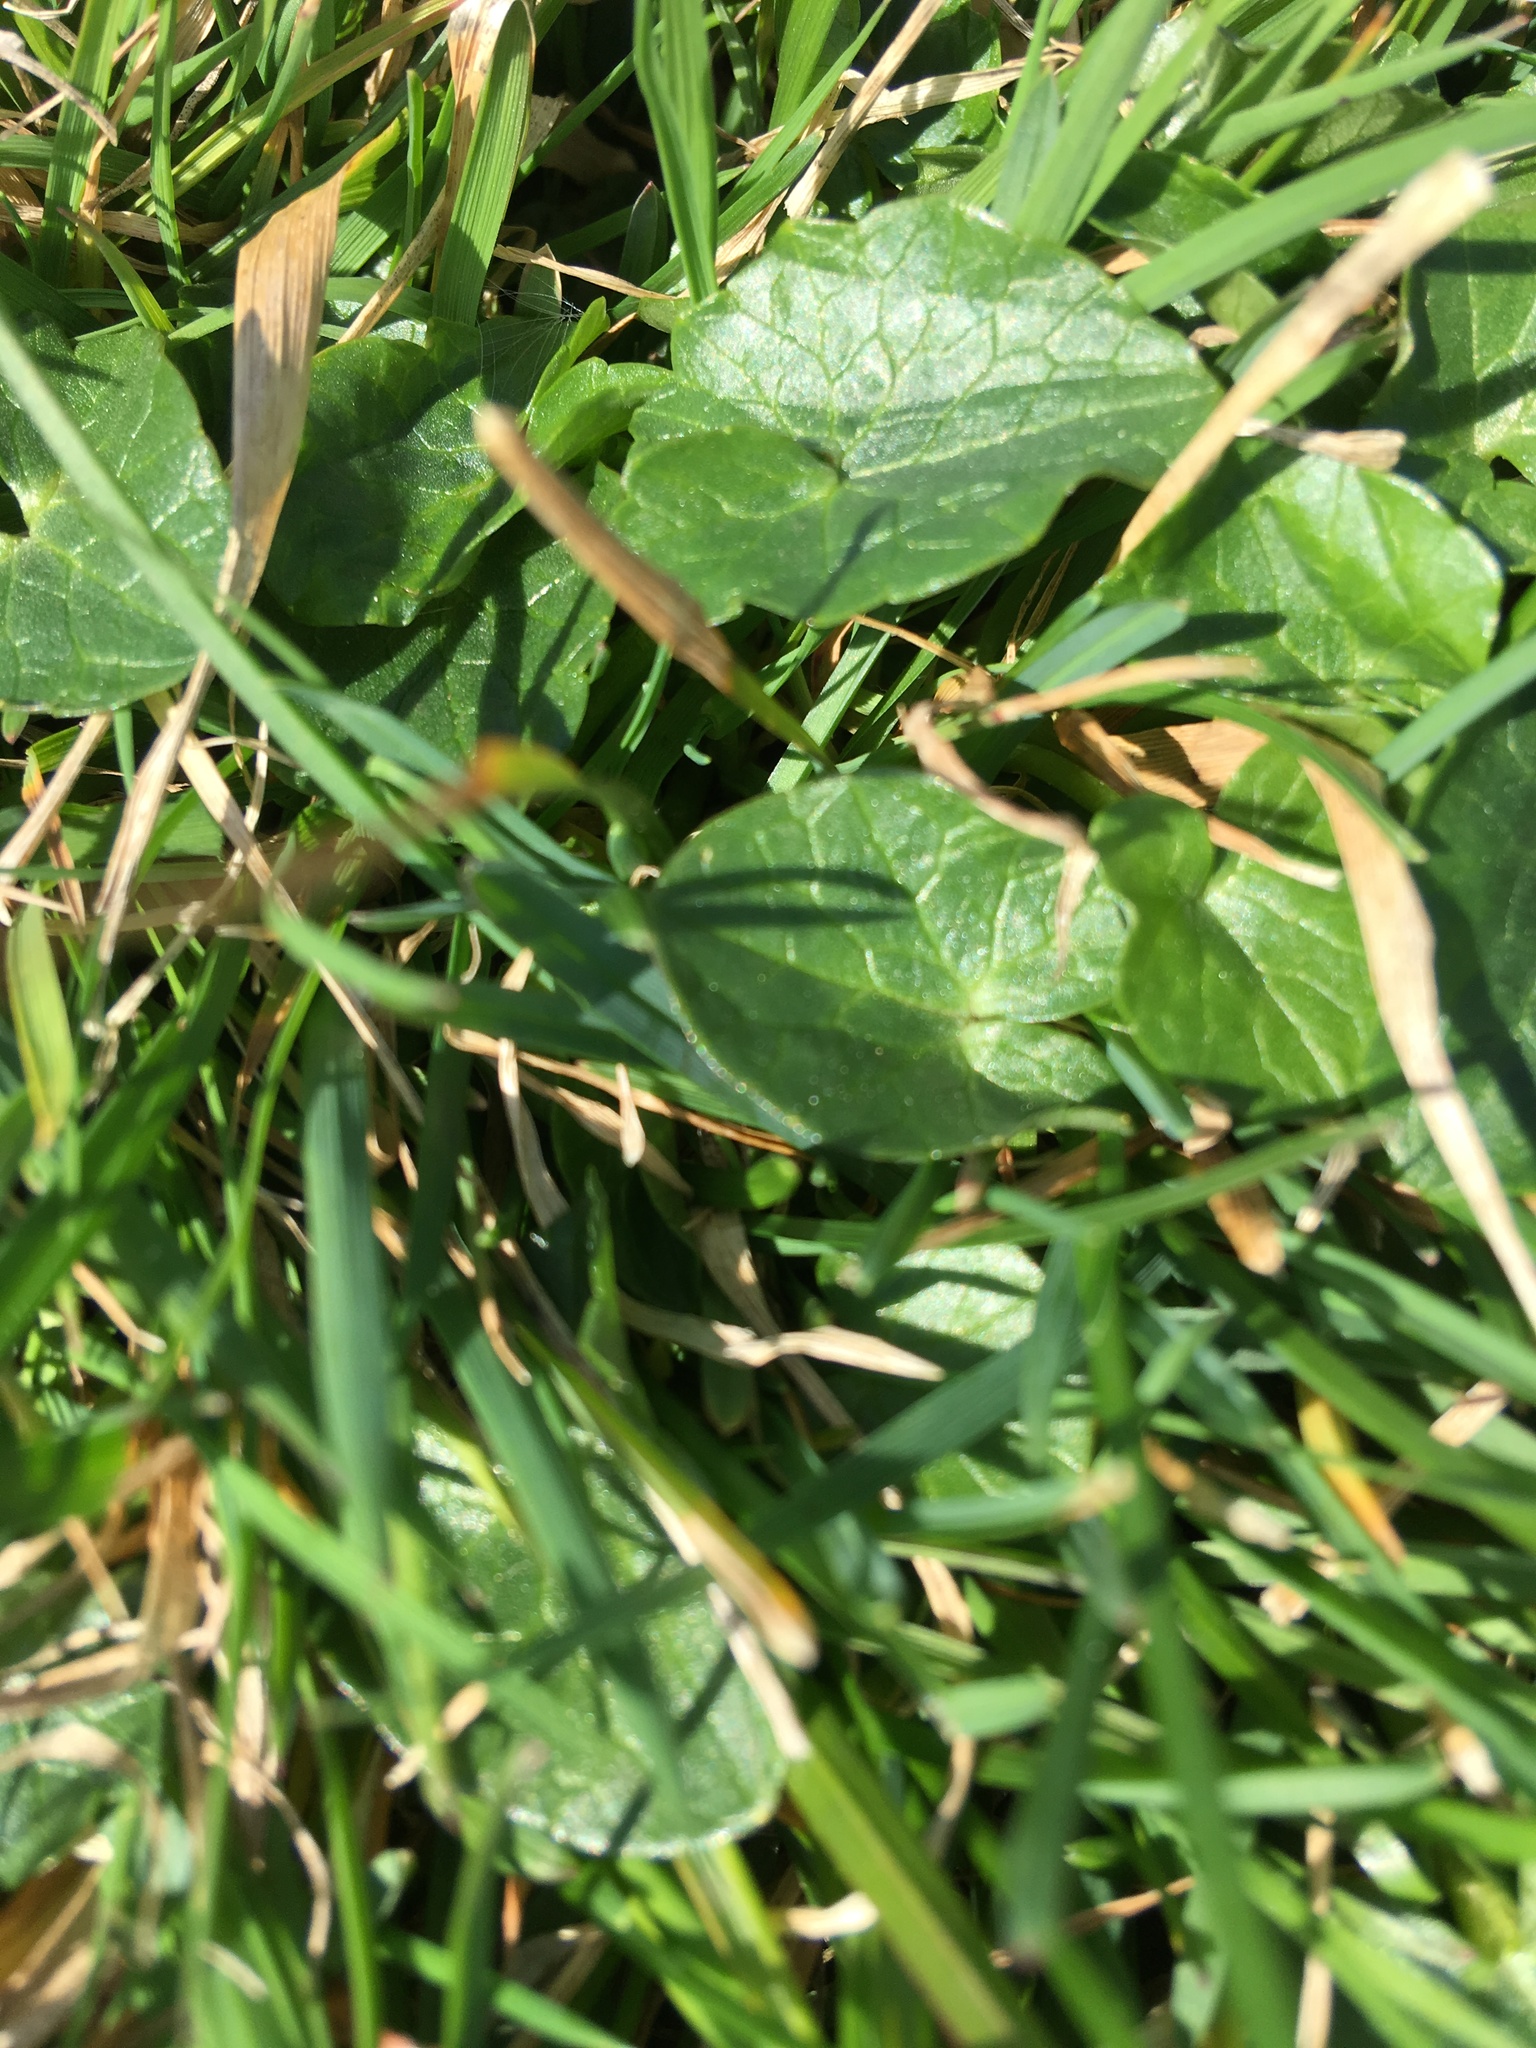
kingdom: Plantae
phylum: Tracheophyta
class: Magnoliopsida
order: Ranunculales
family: Ranunculaceae
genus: Ficaria
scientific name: Ficaria verna
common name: Lesser celandine
